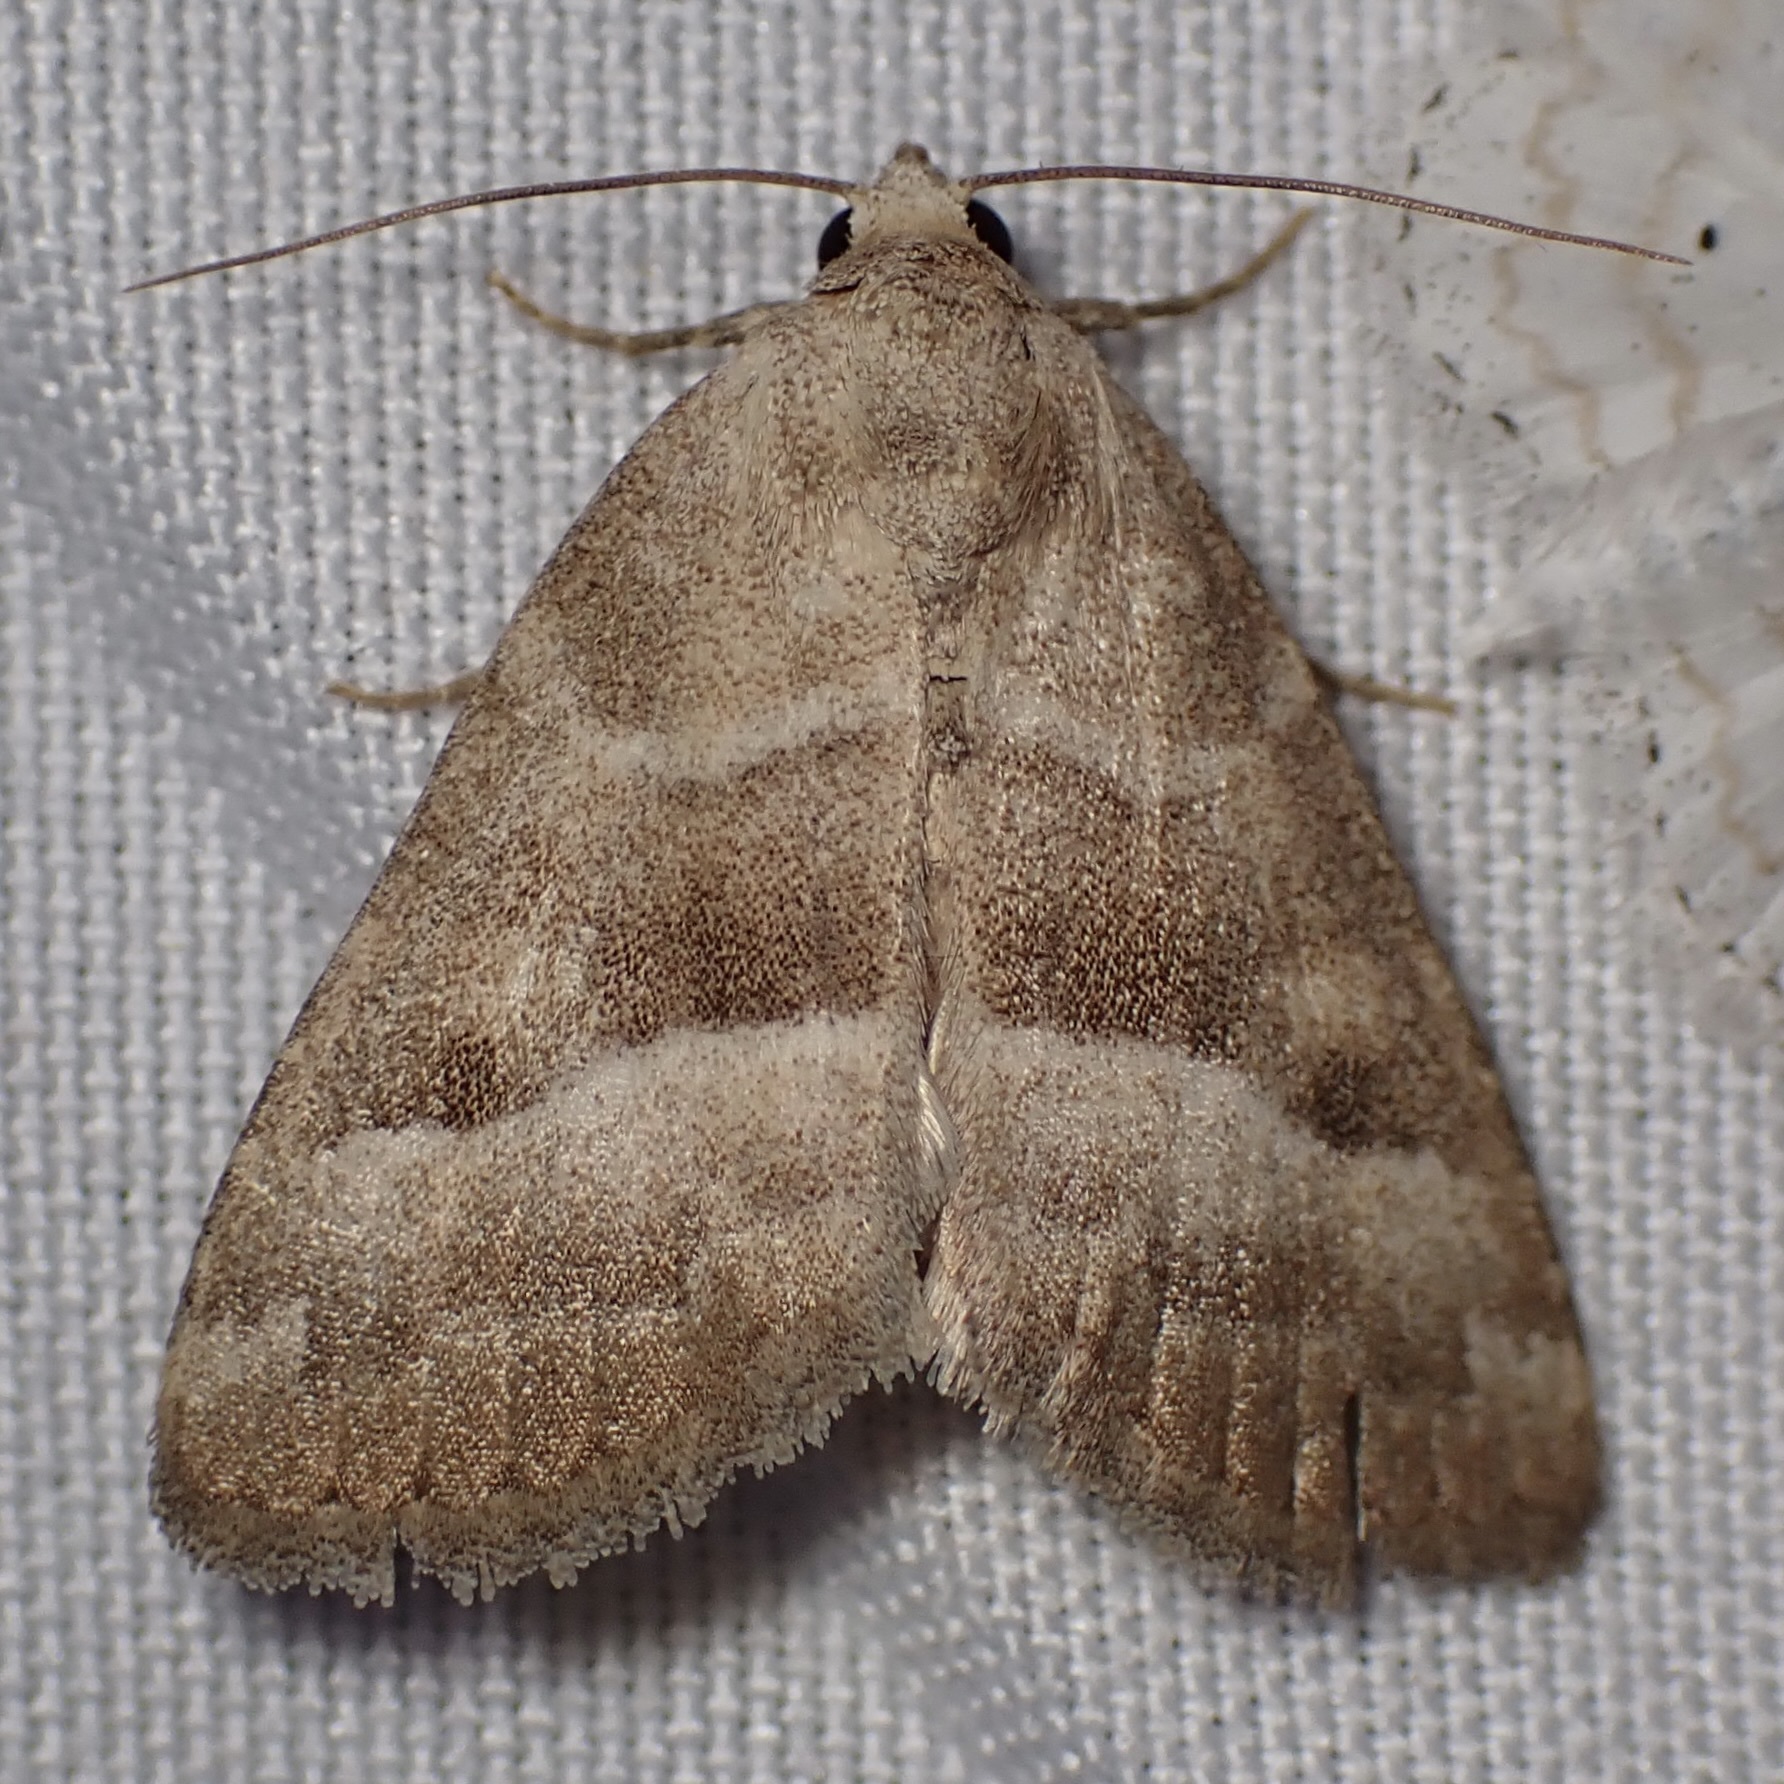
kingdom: Animalia
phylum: Arthropoda
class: Insecta
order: Lepidoptera
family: Noctuidae
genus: Ogdoconta
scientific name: Ogdoconta moreno
